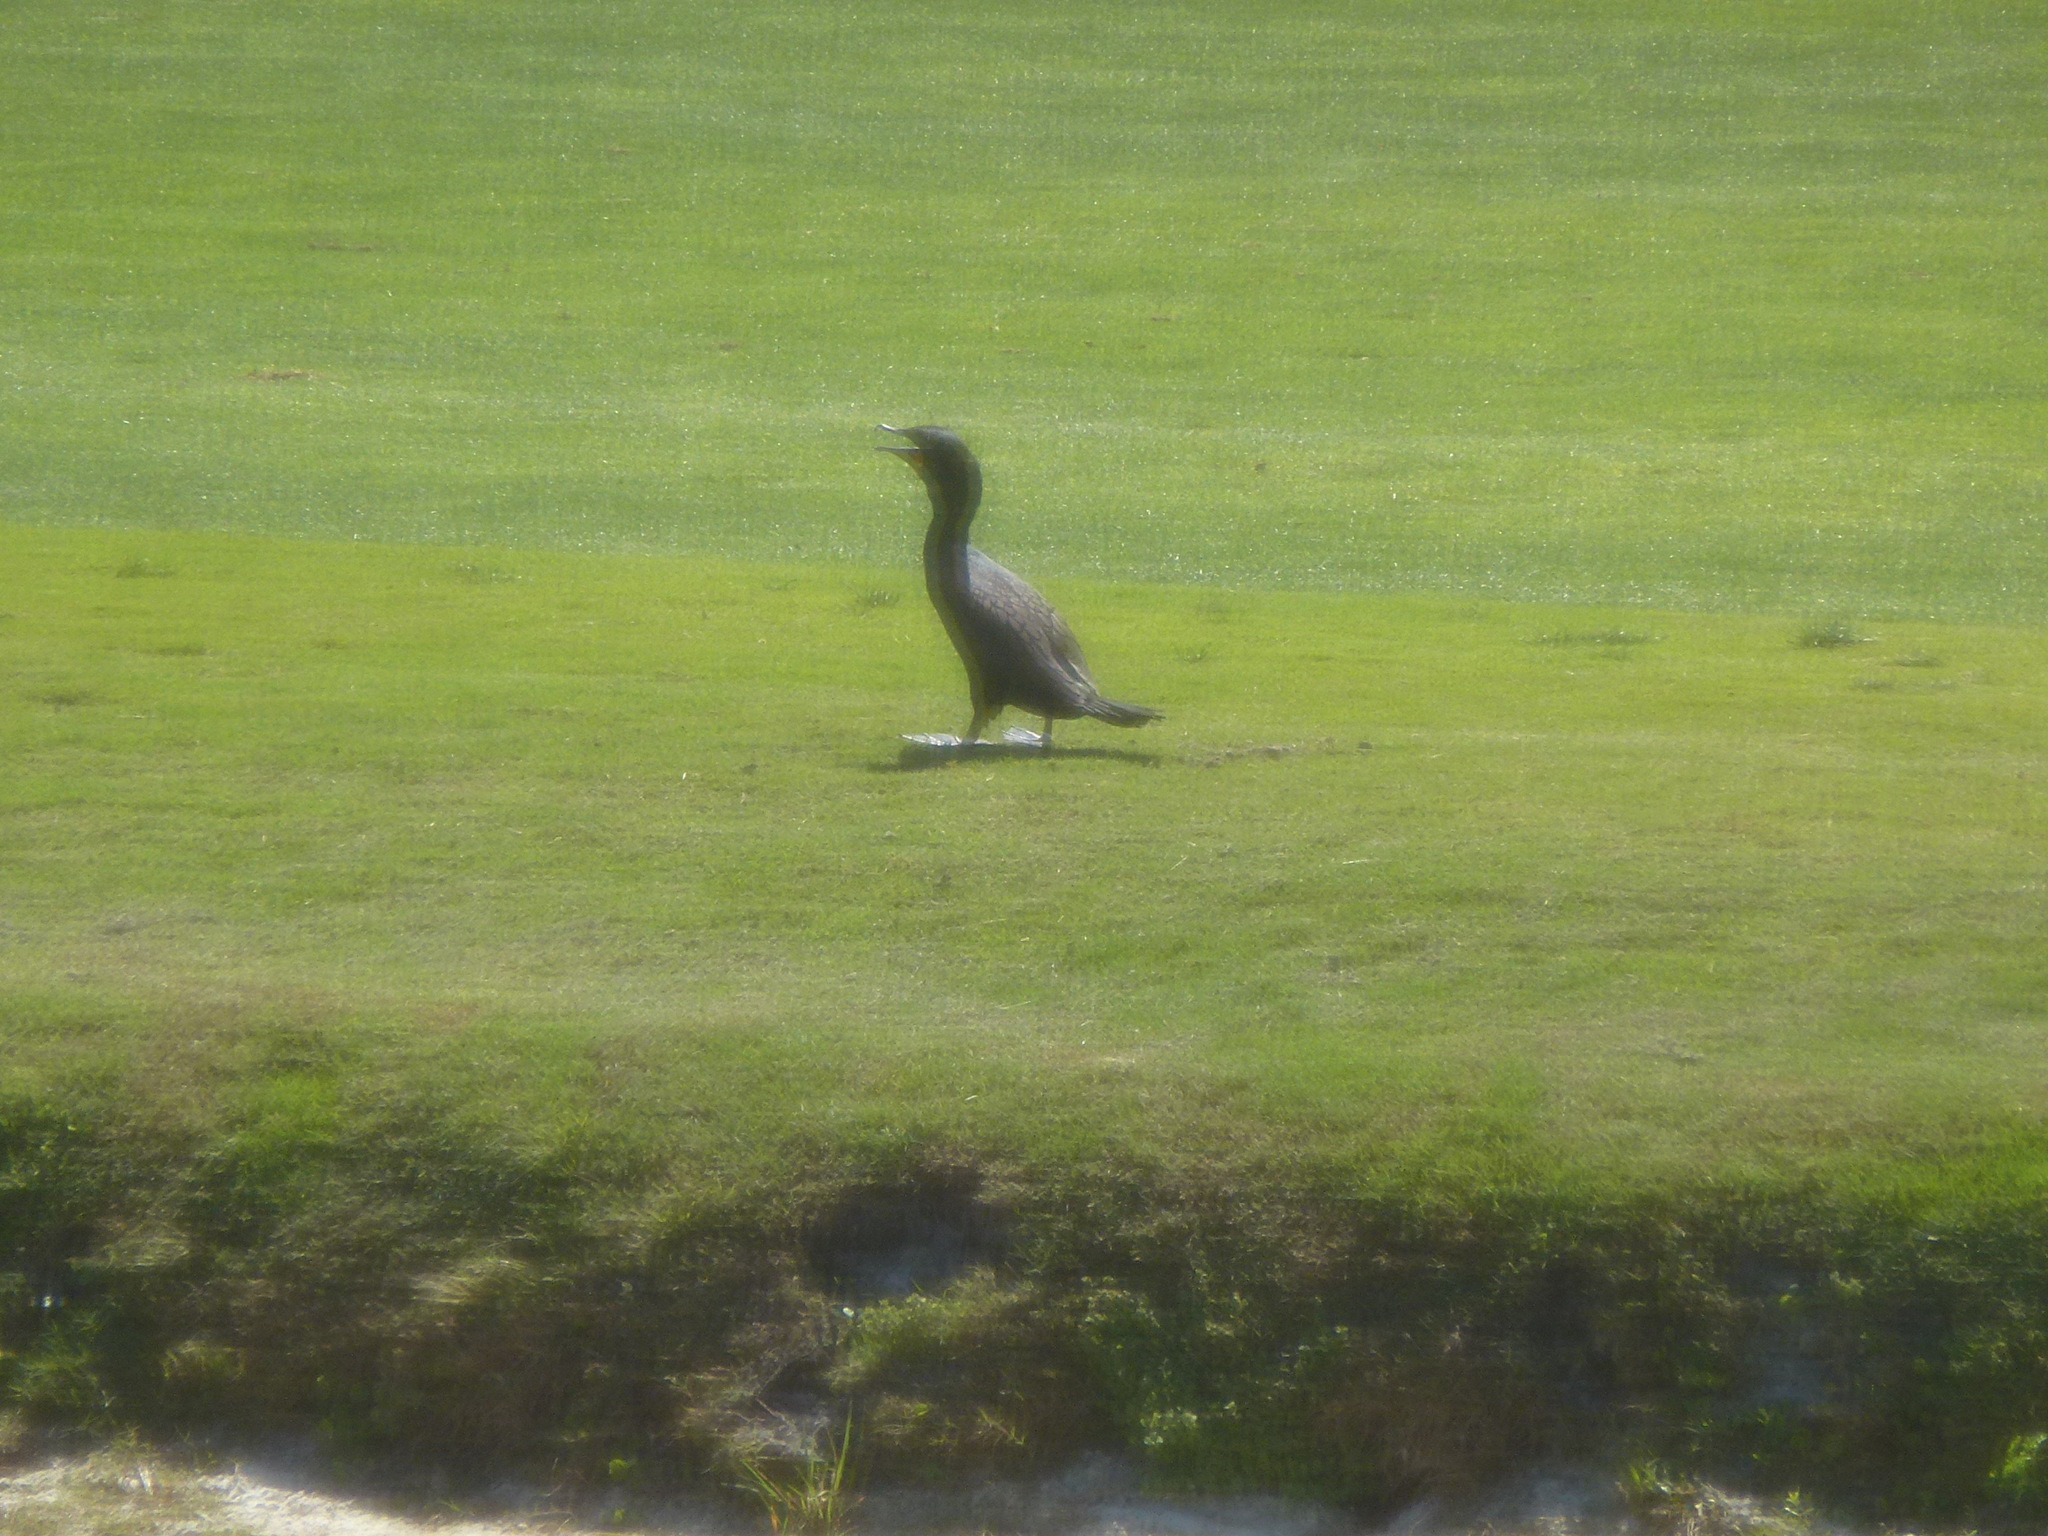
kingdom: Animalia
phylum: Chordata
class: Aves
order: Suliformes
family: Phalacrocoracidae
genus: Phalacrocorax
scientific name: Phalacrocorax auritus
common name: Double-crested cormorant
